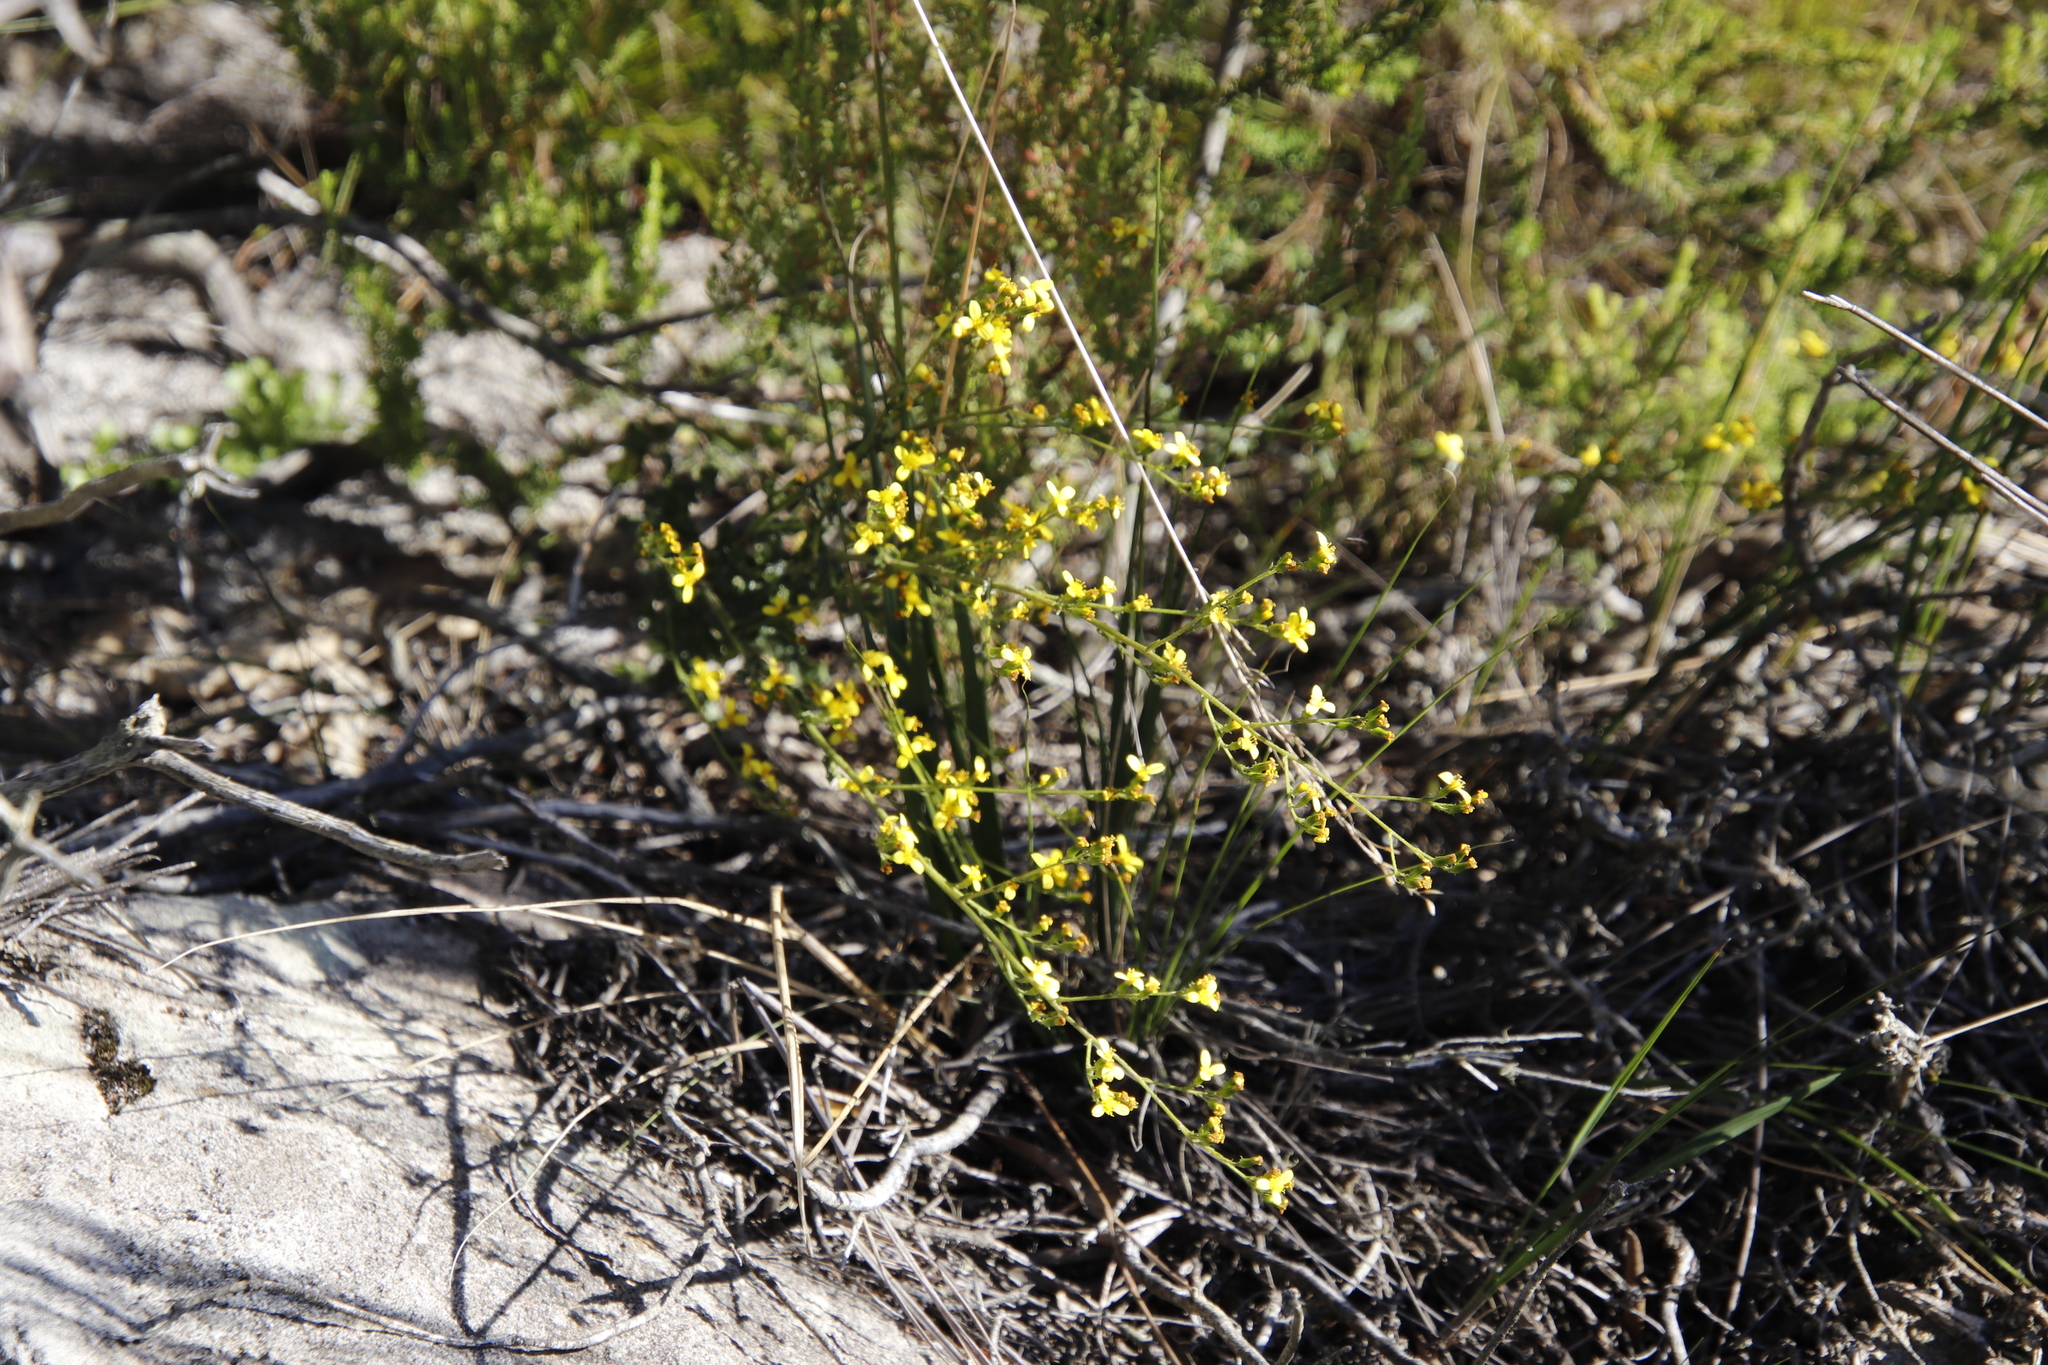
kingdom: Plantae
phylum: Tracheophyta
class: Magnoliopsida
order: Asterales
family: Asteraceae
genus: Senecio
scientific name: Senecio pubigerus
